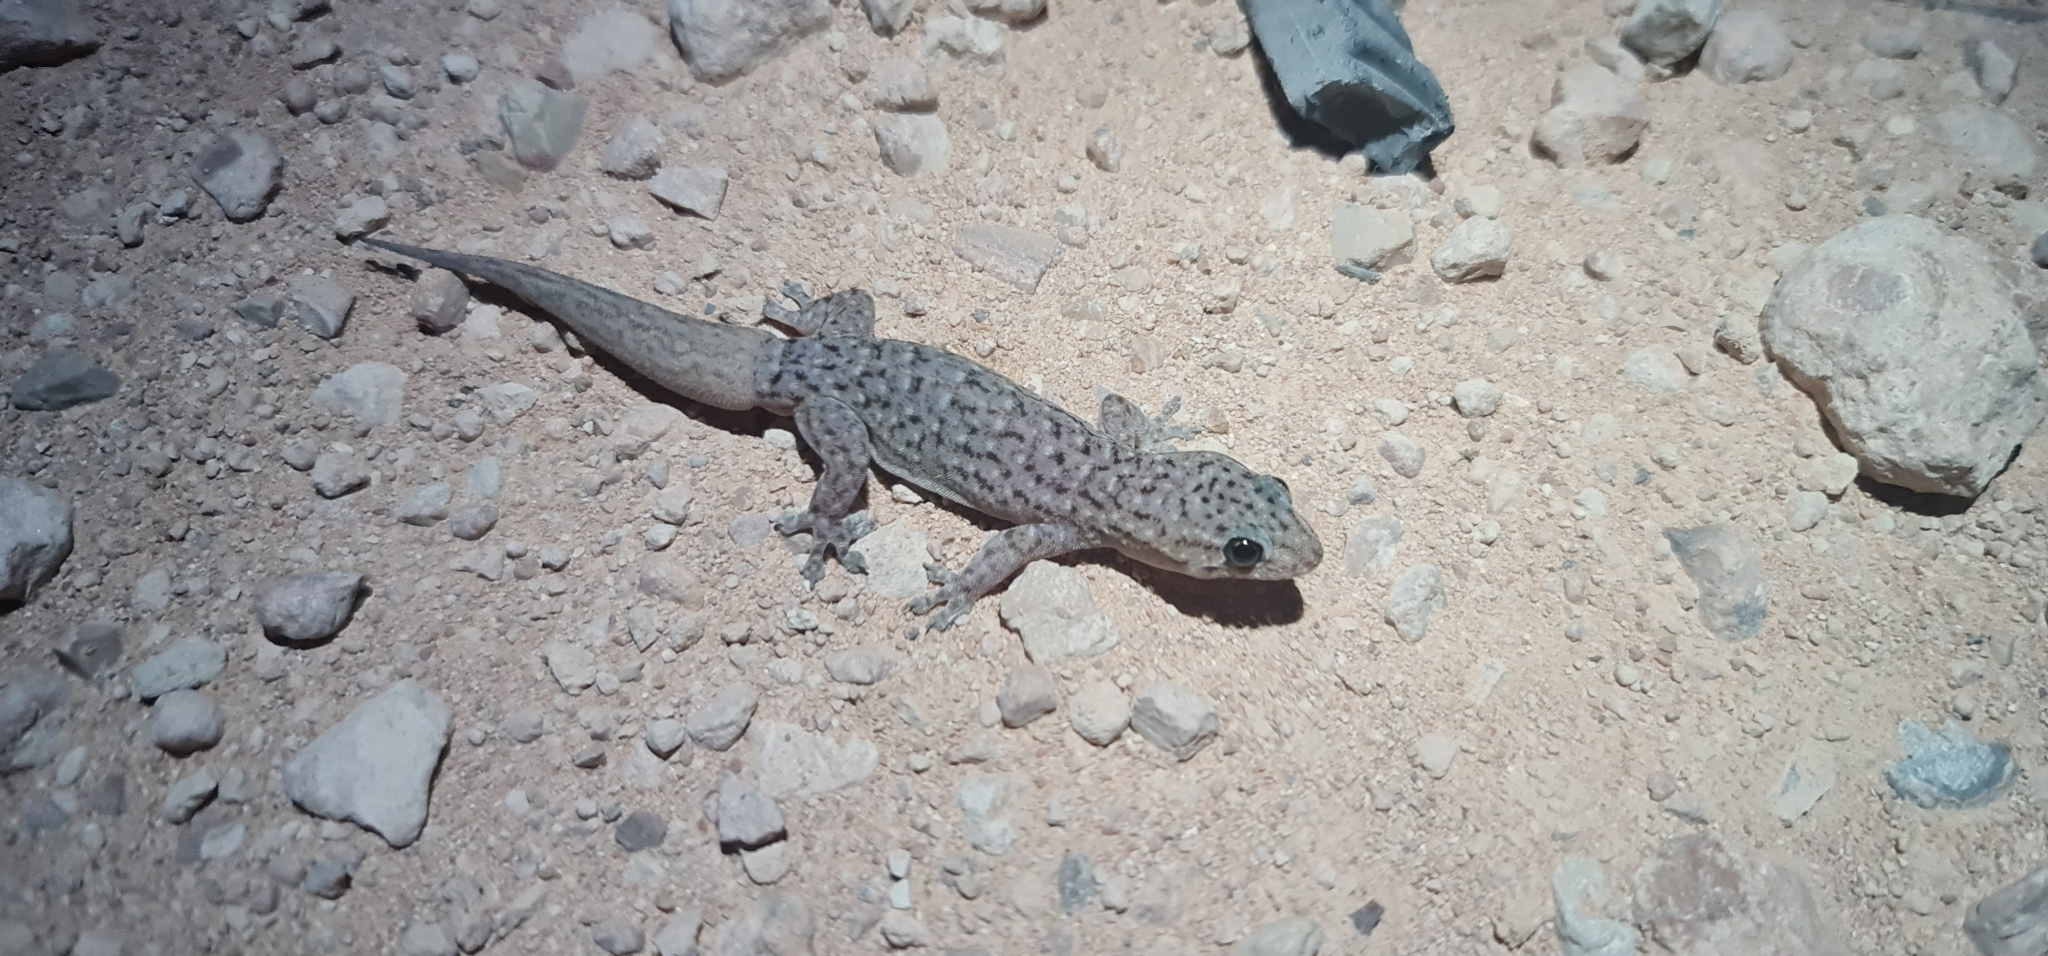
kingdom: Animalia
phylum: Chordata
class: Squamata
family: Gekkonidae
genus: Gehyra
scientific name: Gehyra lazelli
